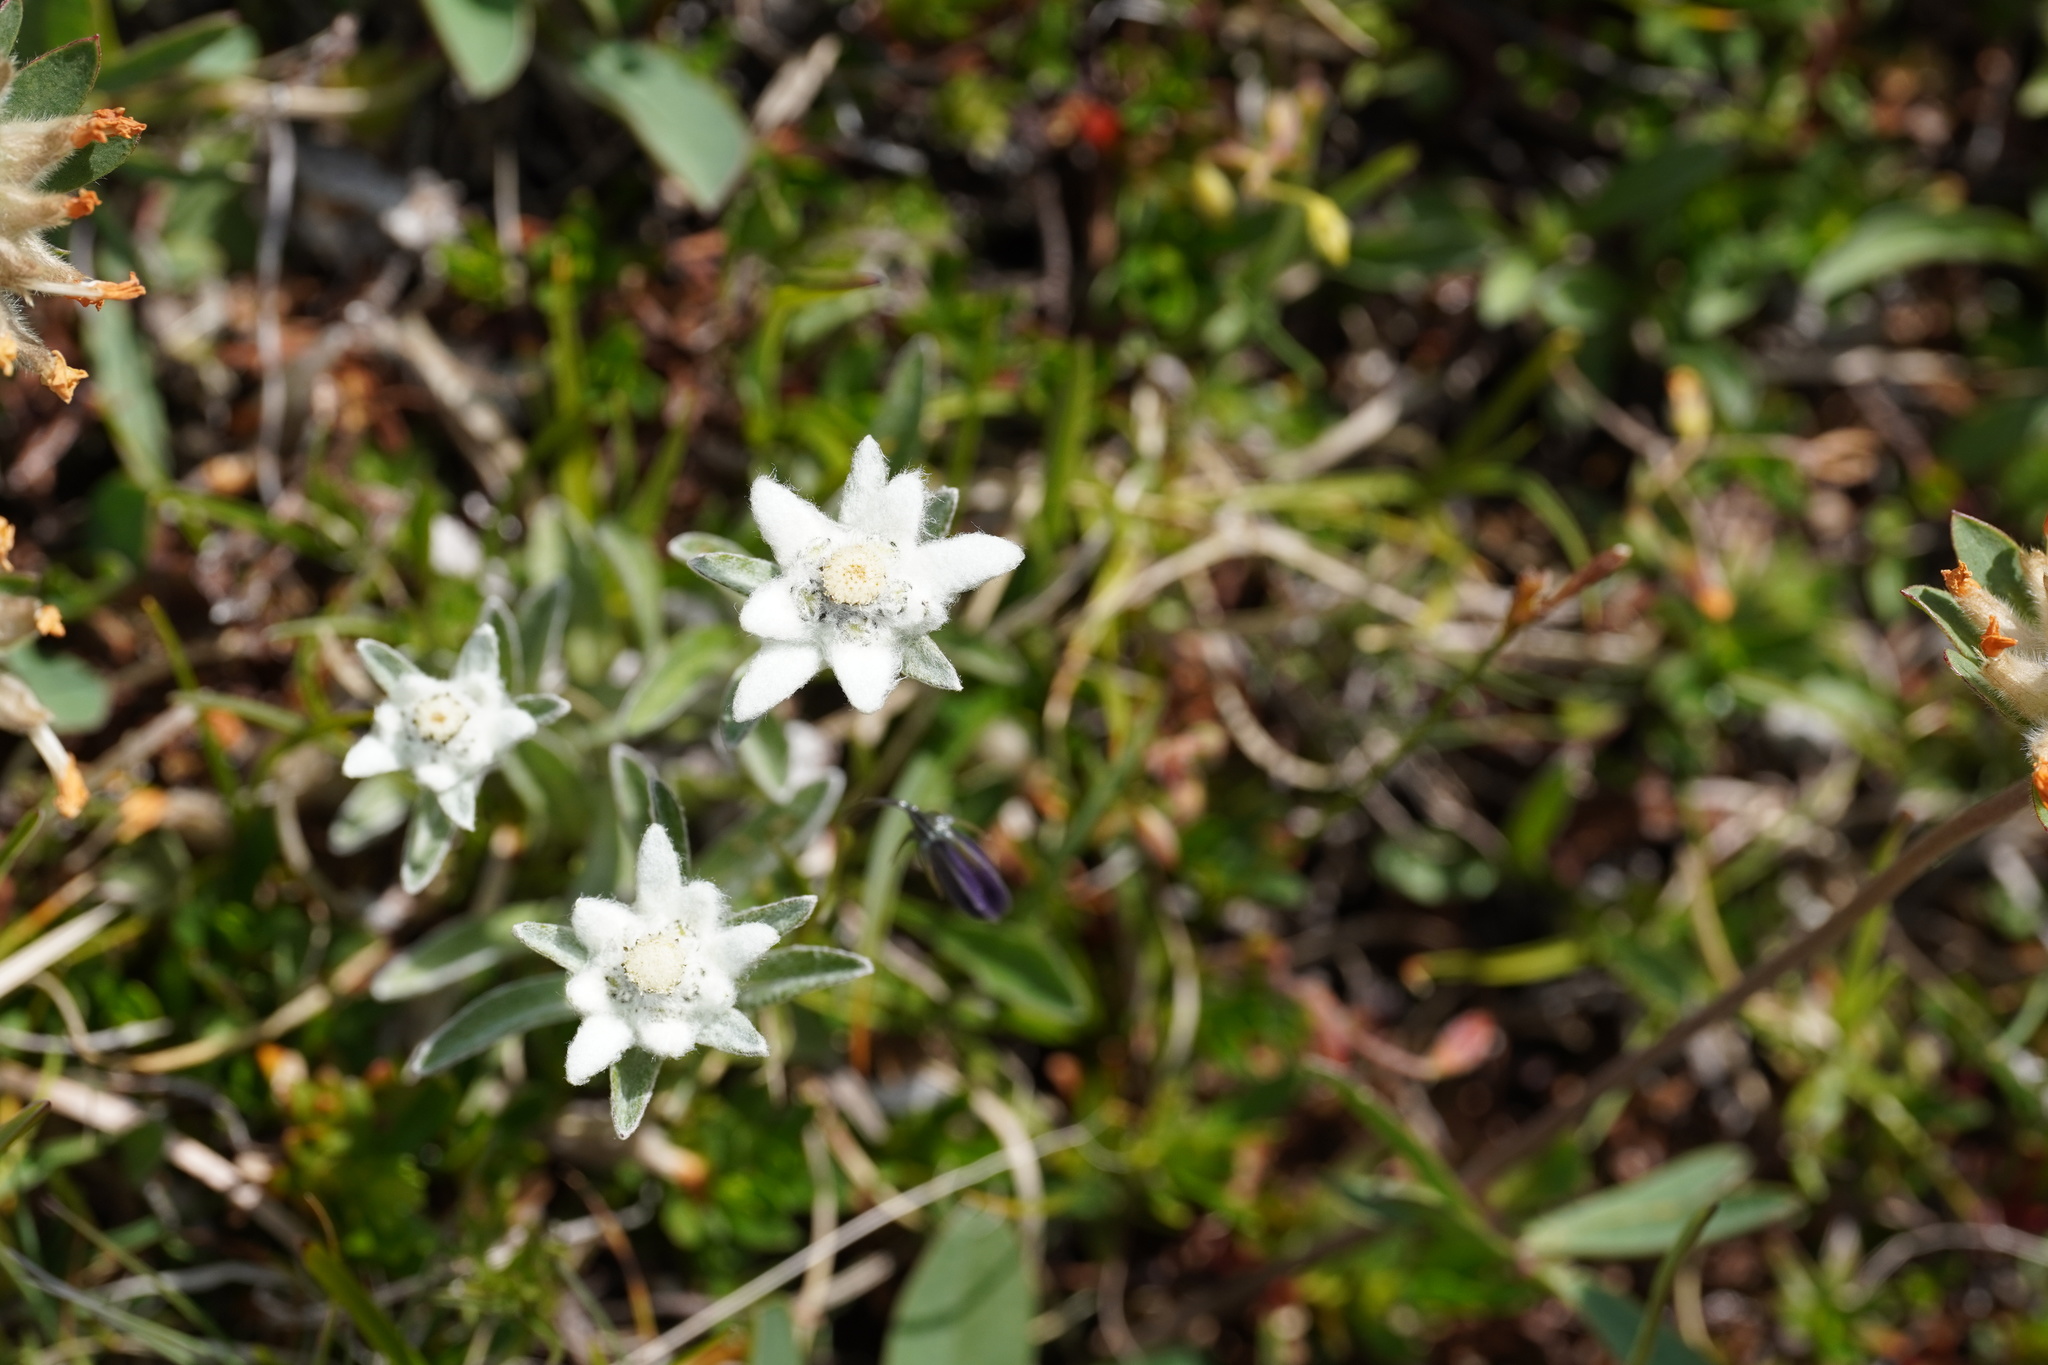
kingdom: Plantae
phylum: Tracheophyta
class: Magnoliopsida
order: Asterales
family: Asteraceae
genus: Leontopodium
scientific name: Leontopodium nivale
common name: Edelweiss
